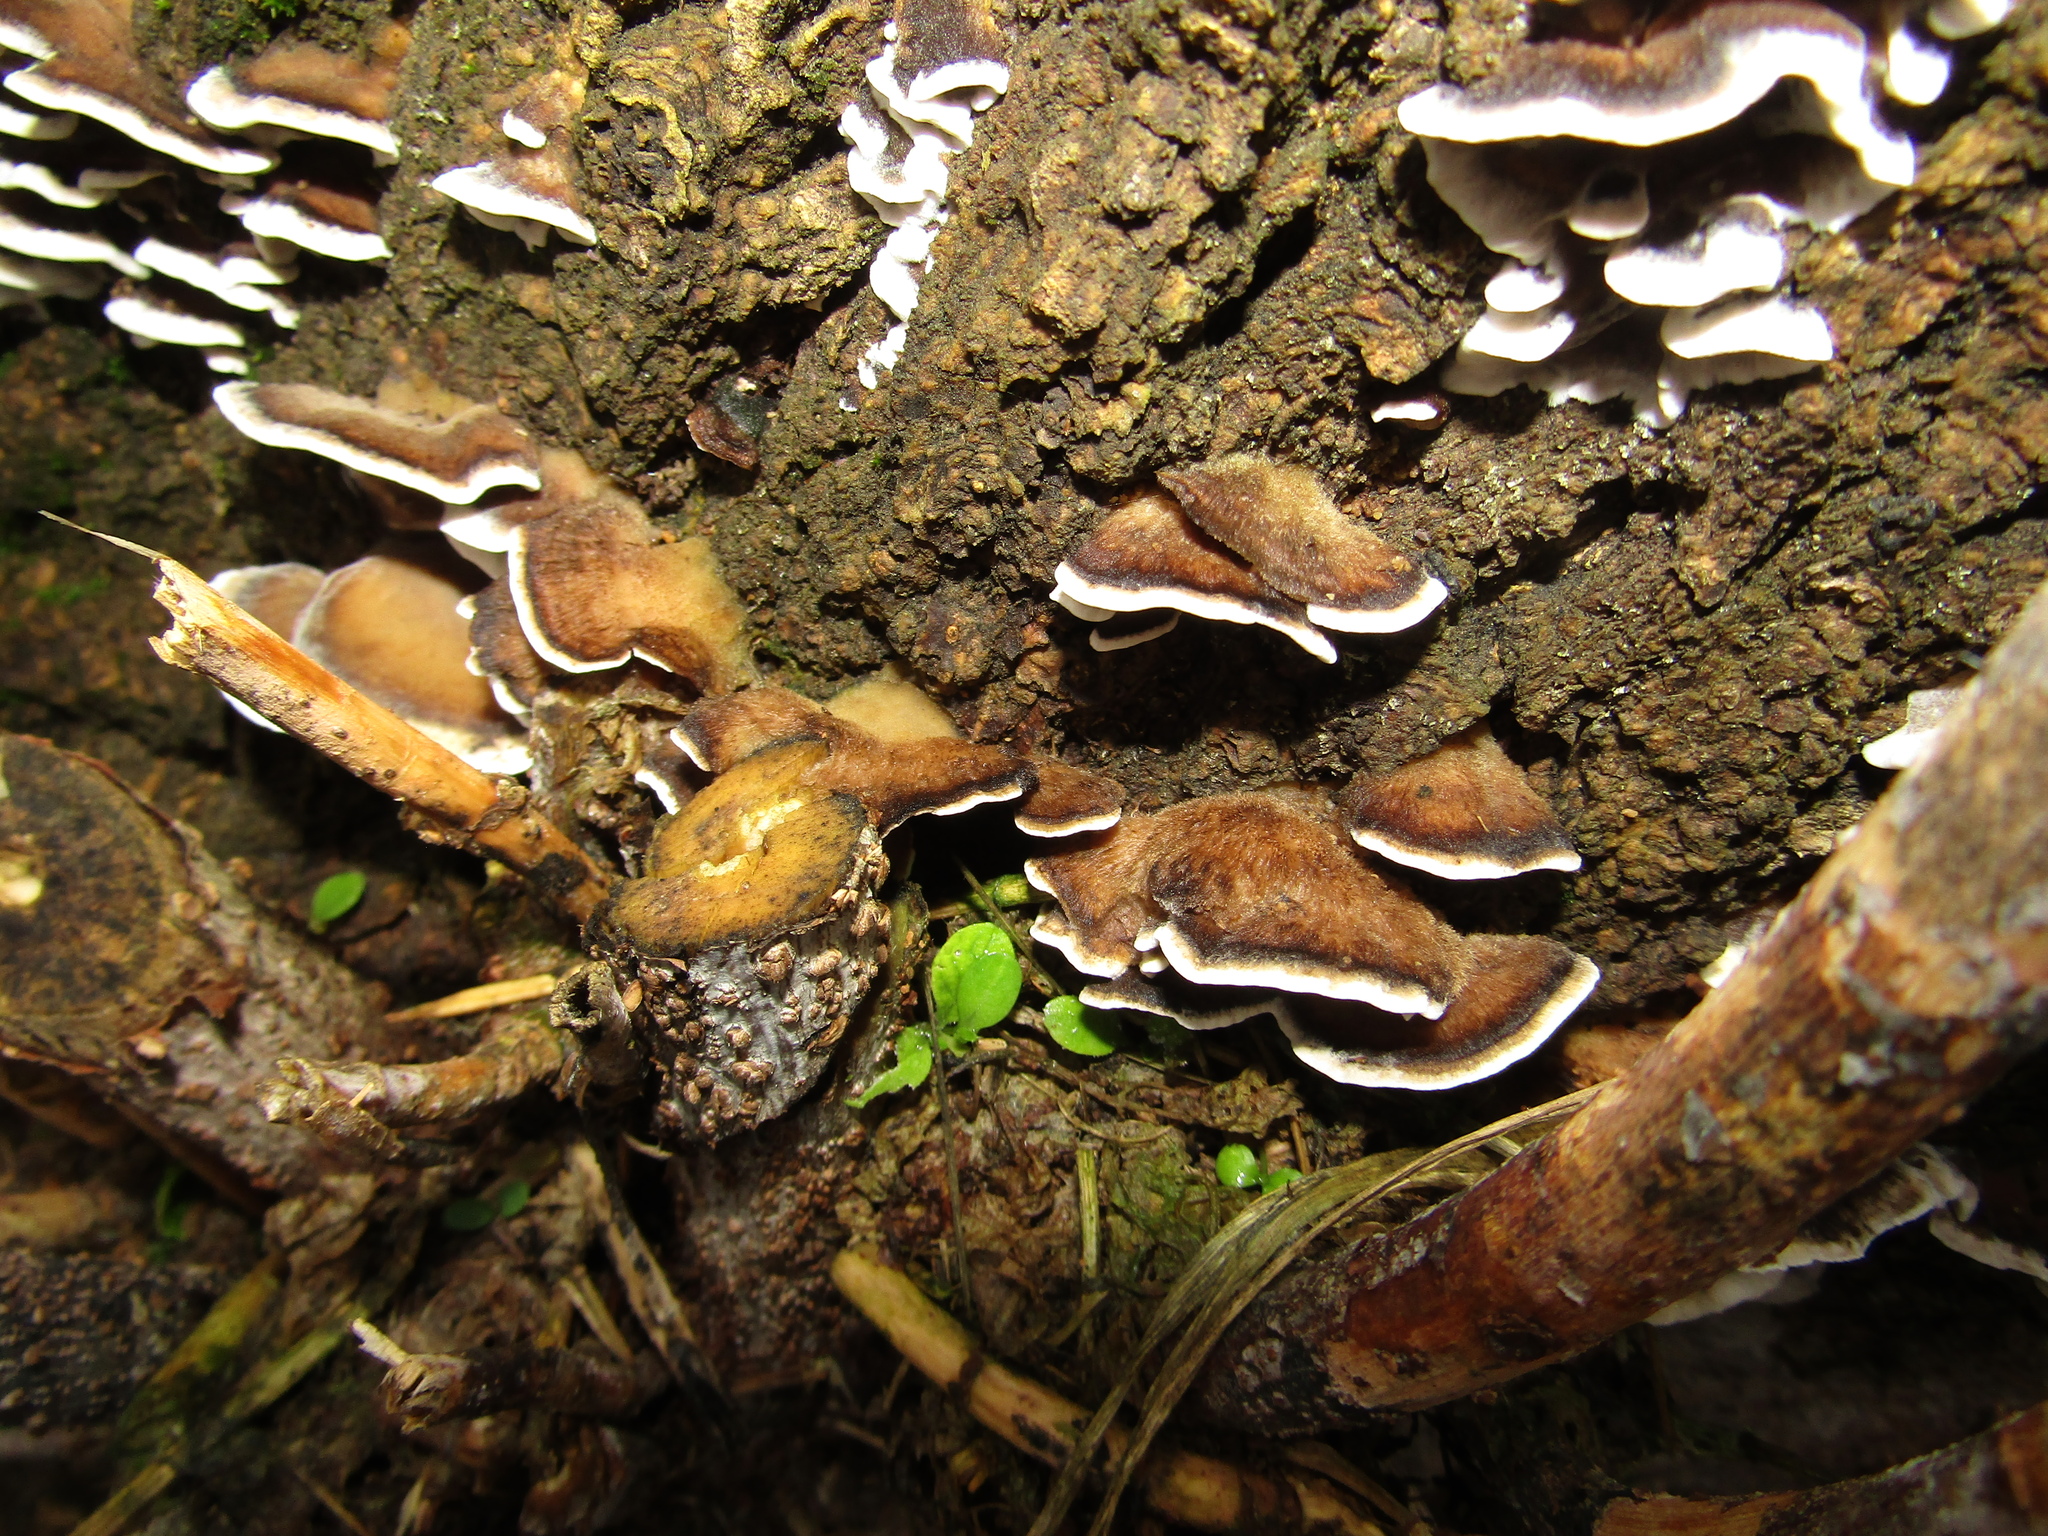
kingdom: Fungi
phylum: Basidiomycota
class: Agaricomycetes
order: Polyporales
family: Phanerochaetaceae
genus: Bjerkandera
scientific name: Bjerkandera adusta
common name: Smoky bracket
